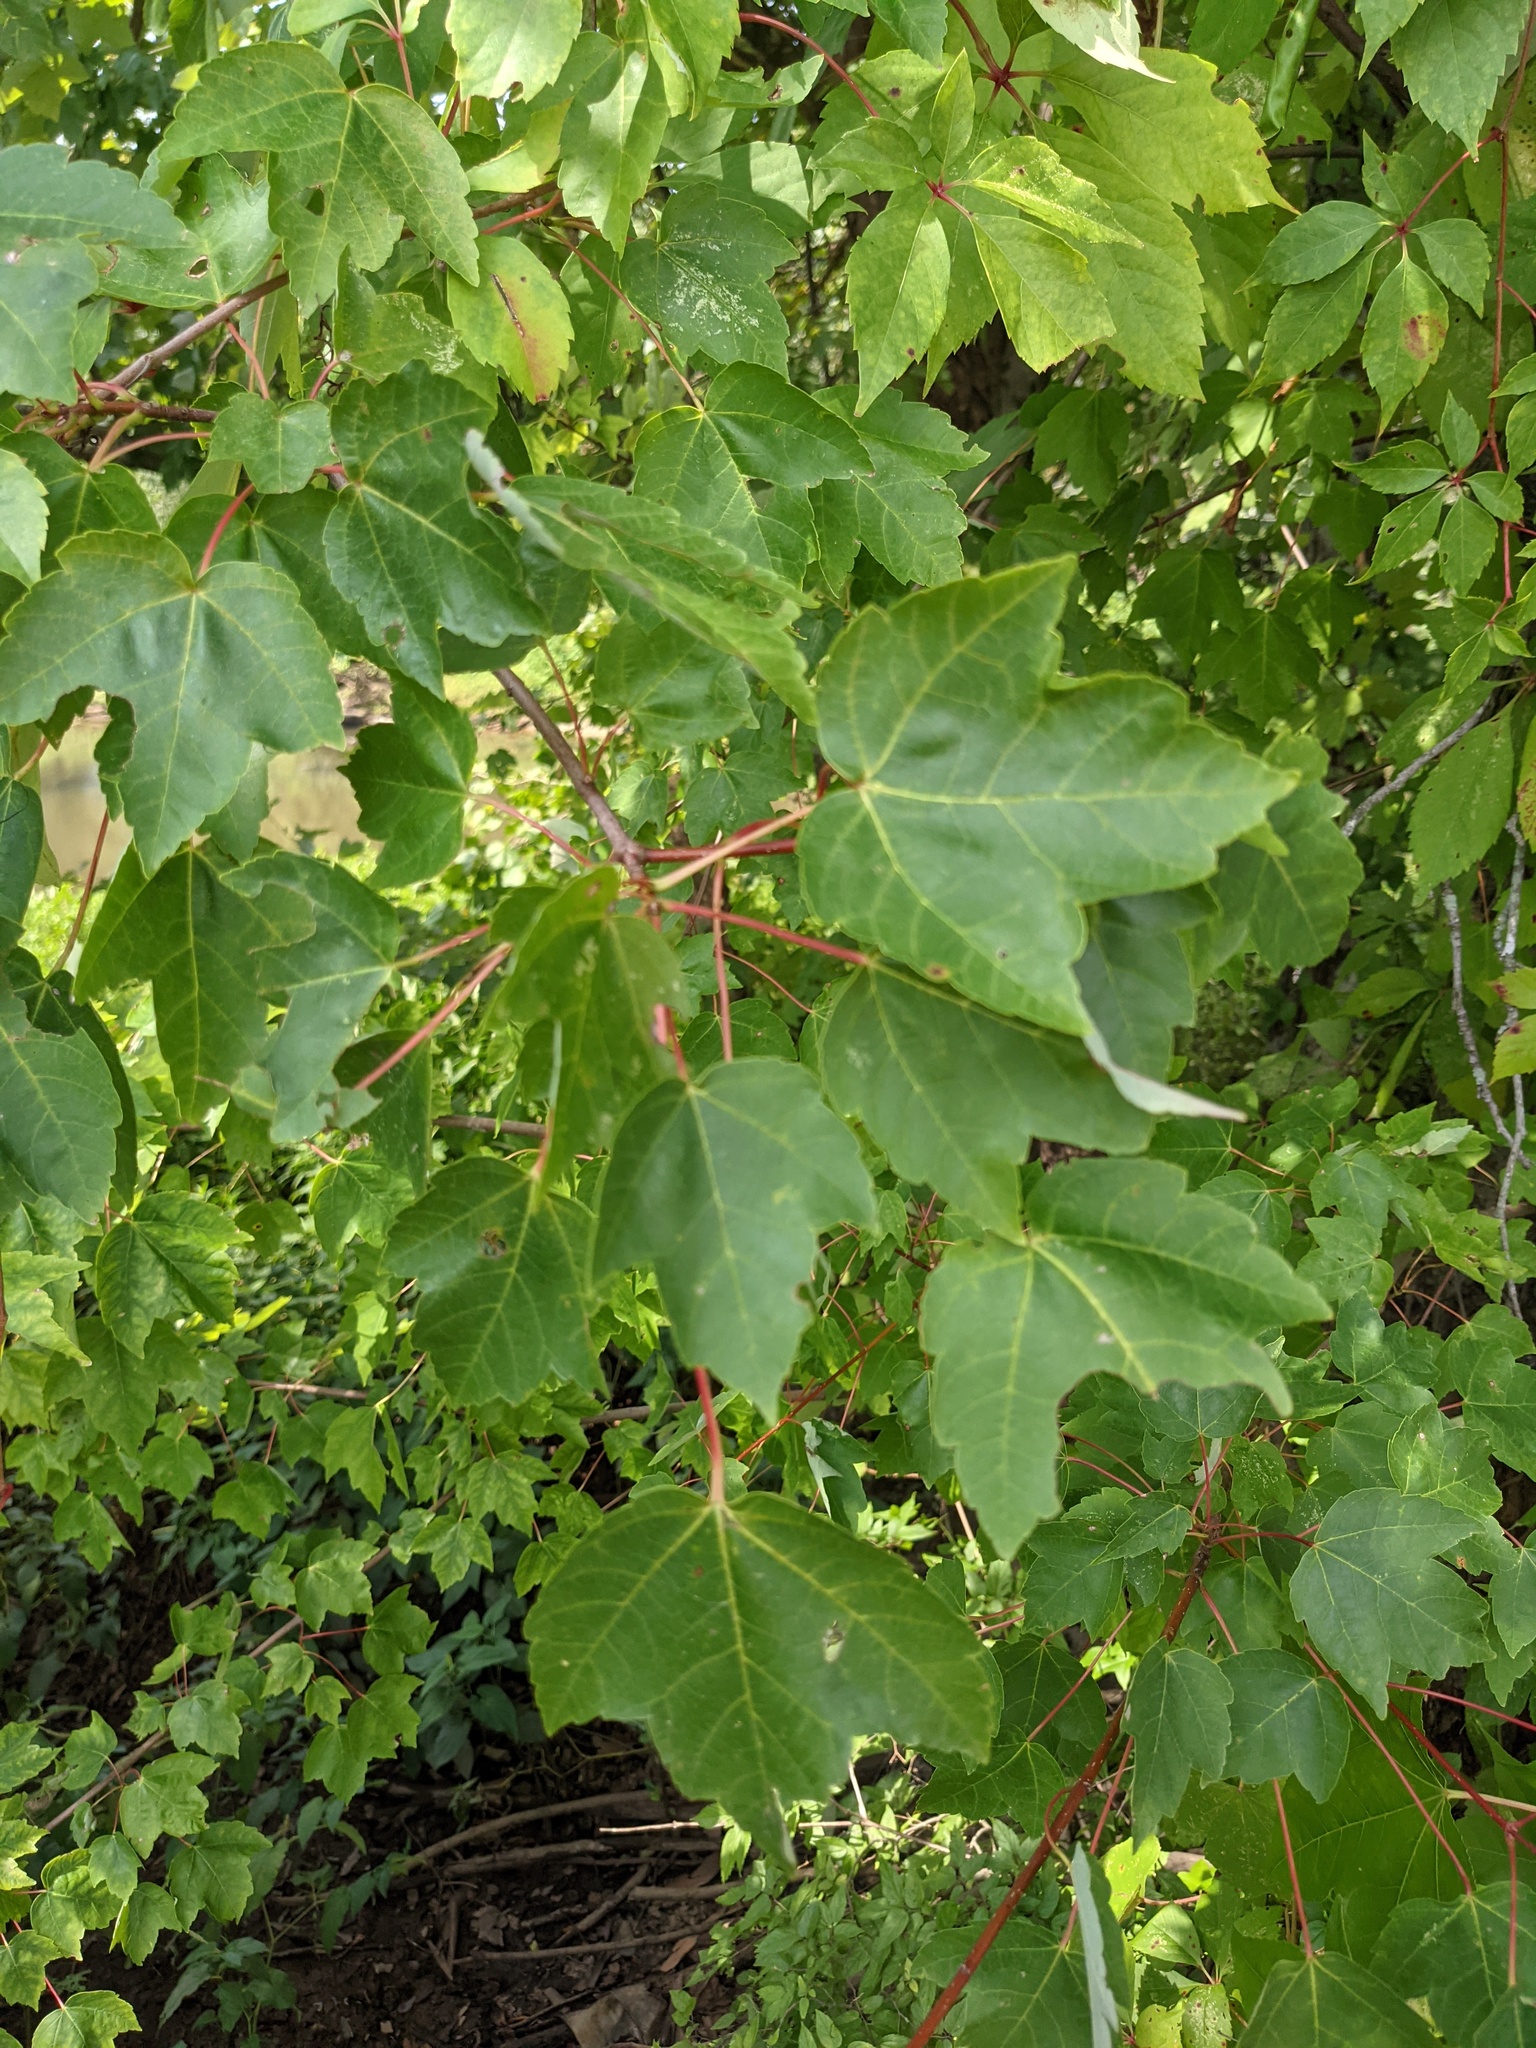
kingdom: Plantae
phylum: Tracheophyta
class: Magnoliopsida
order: Sapindales
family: Sapindaceae
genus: Acer
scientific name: Acer rubrum
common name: Red maple
